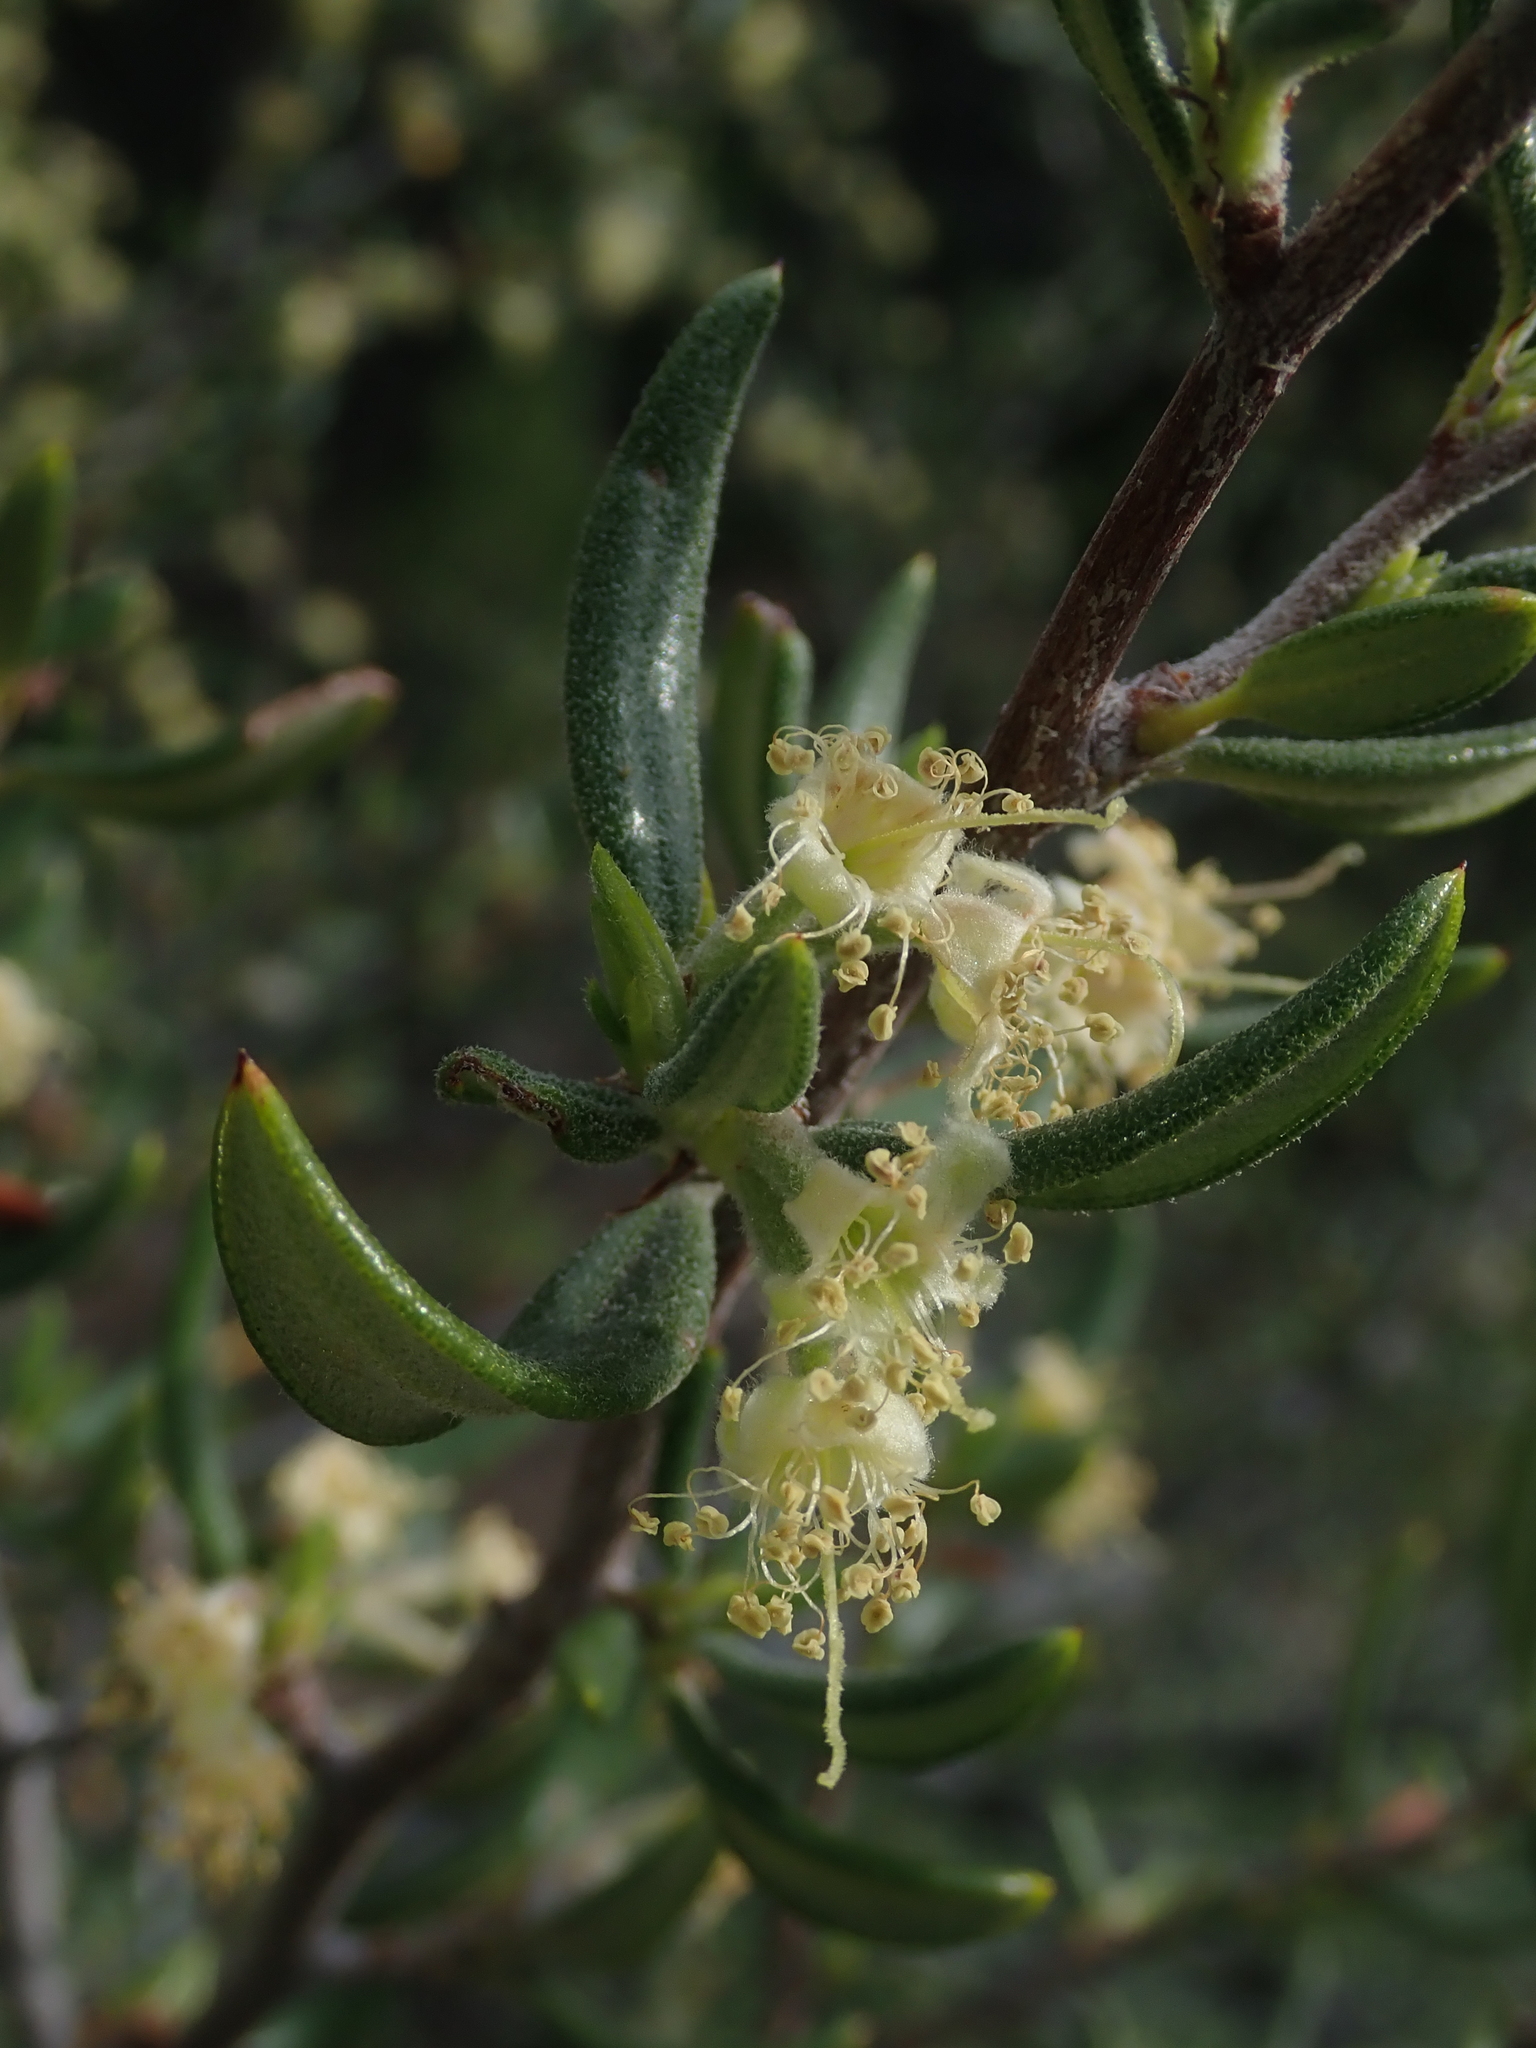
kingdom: Plantae
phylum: Tracheophyta
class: Magnoliopsida
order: Rosales
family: Rosaceae
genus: Cercocarpus
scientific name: Cercocarpus ledifolius
